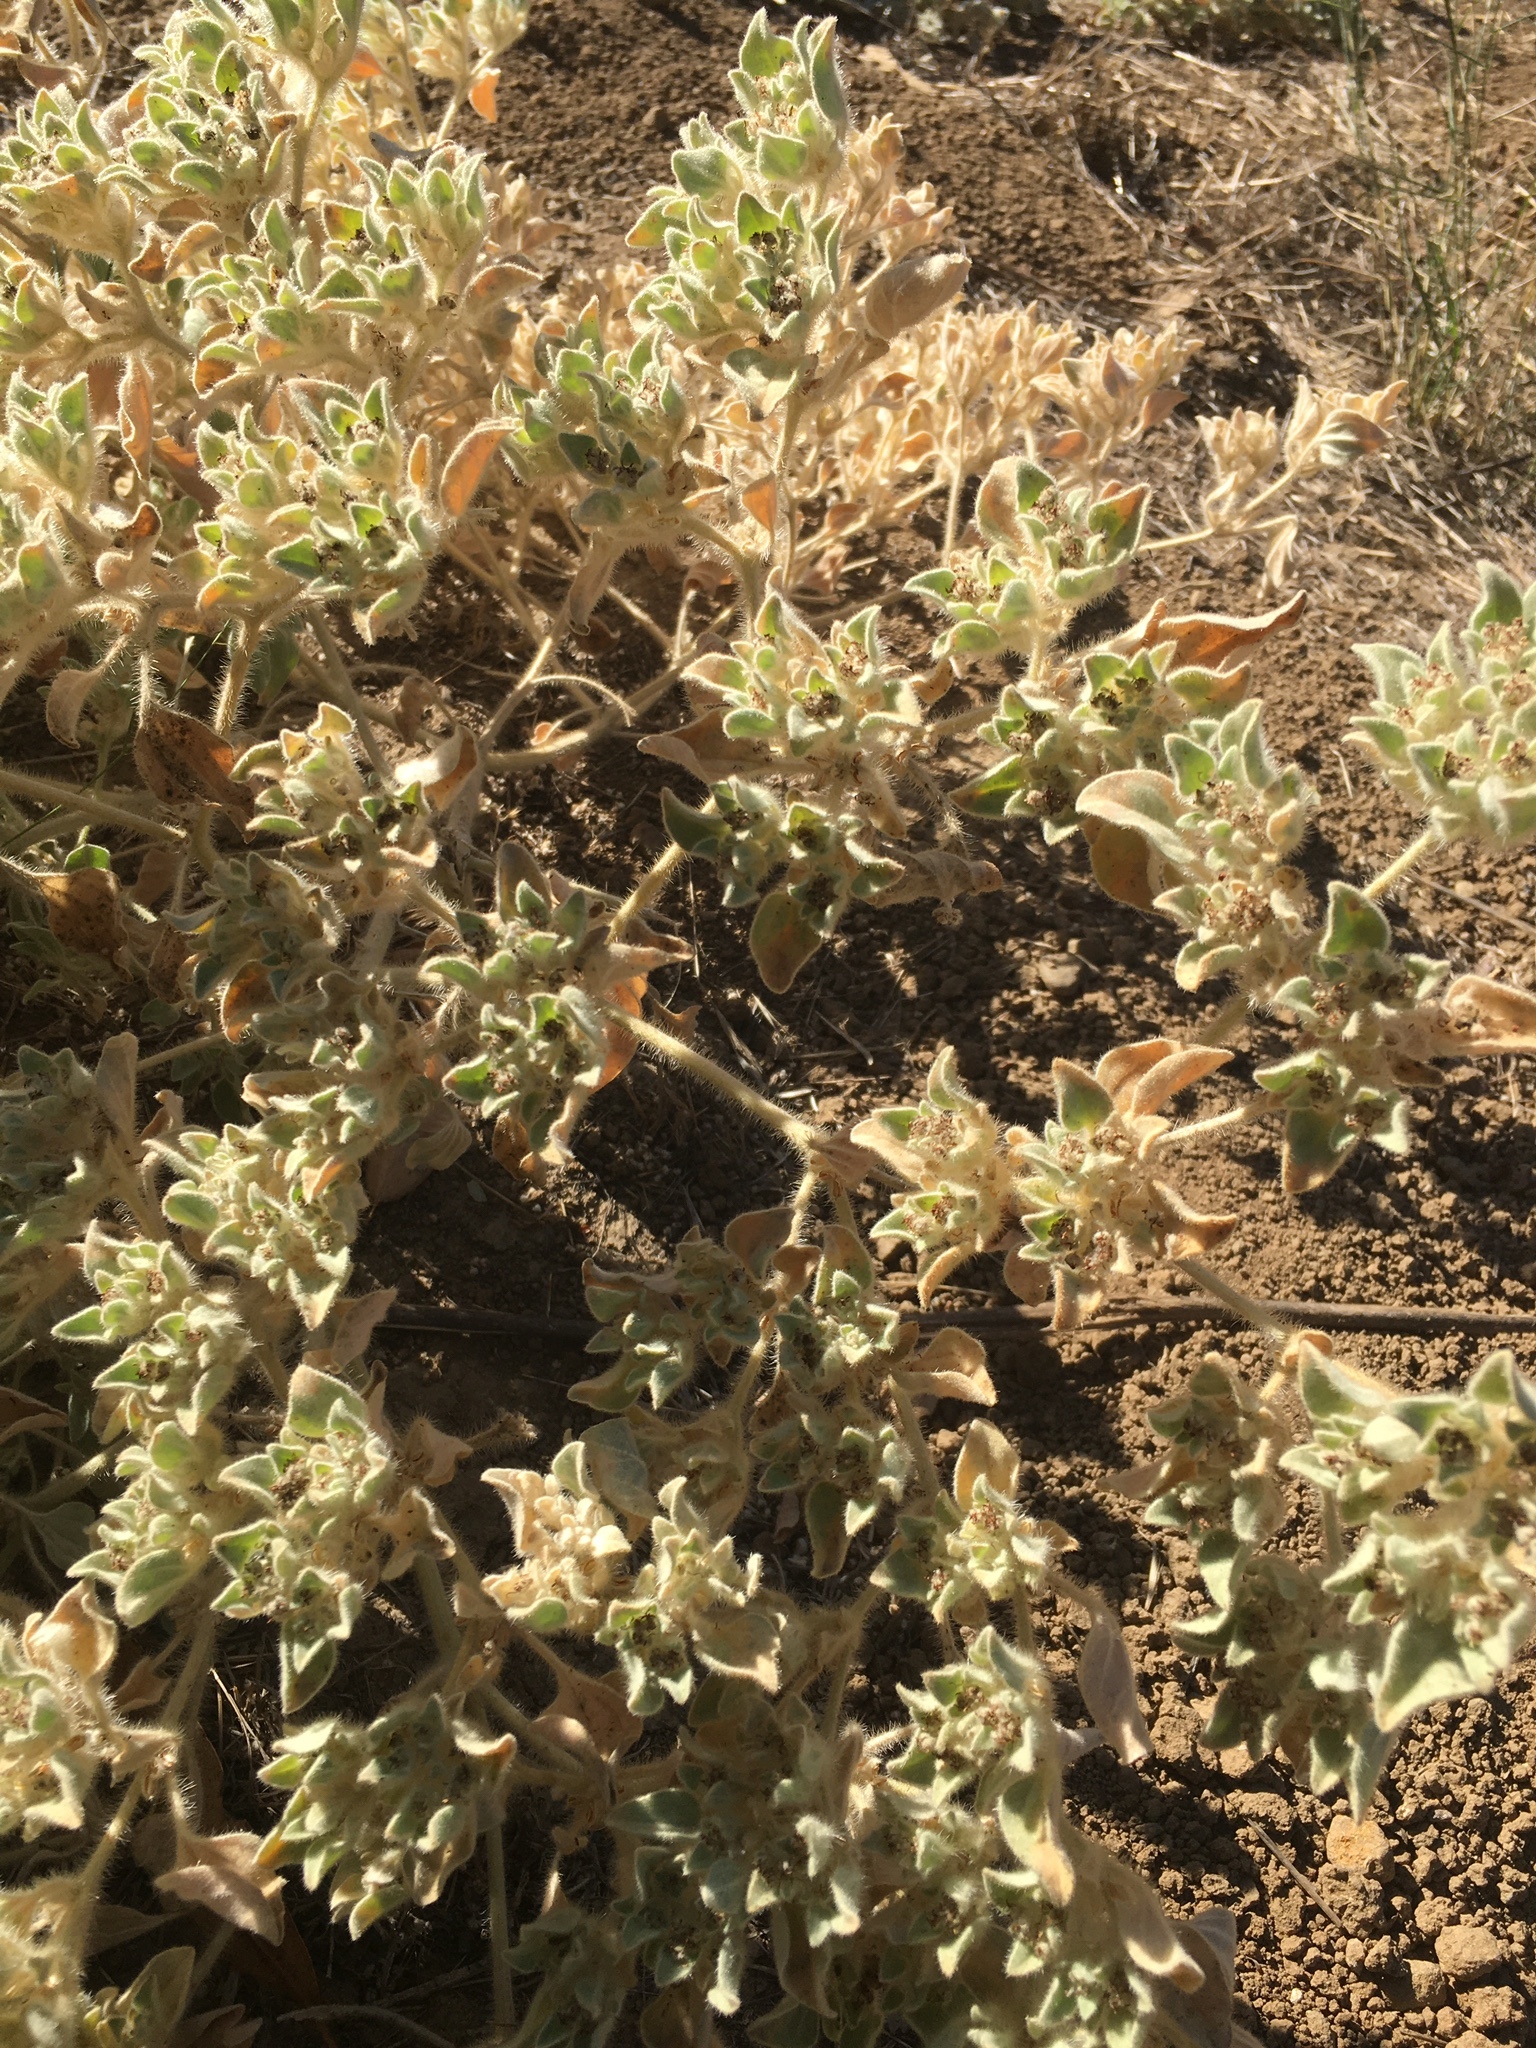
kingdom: Plantae
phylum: Tracheophyta
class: Magnoliopsida
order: Malpighiales
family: Euphorbiaceae
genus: Croton
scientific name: Croton setiger
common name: Dove weed
